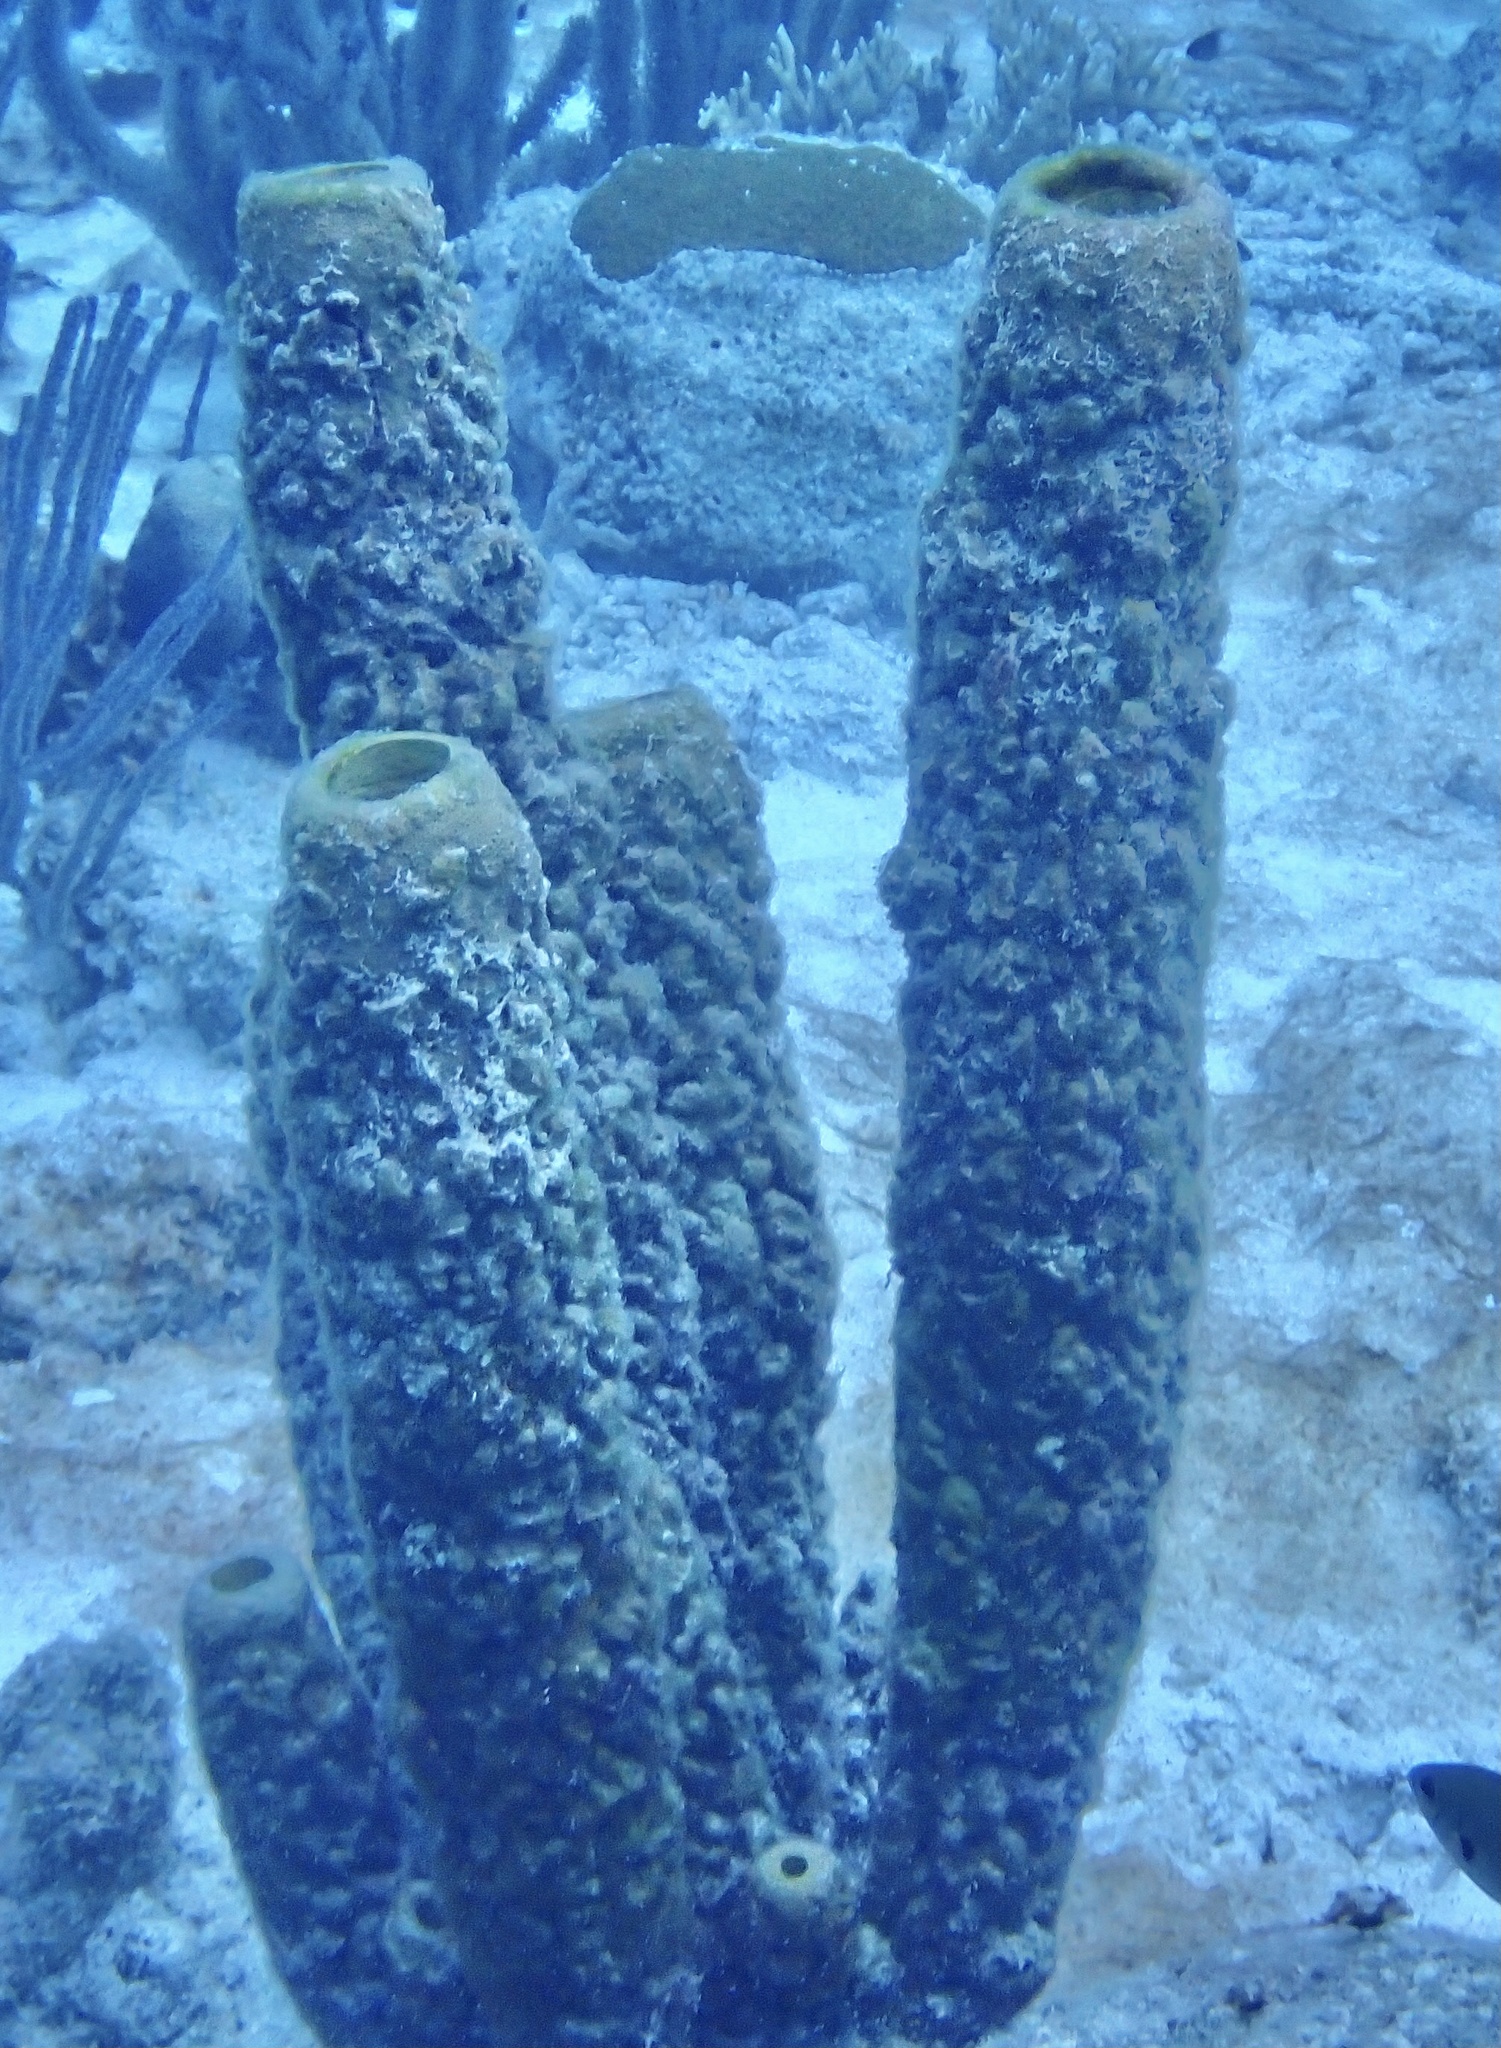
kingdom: Animalia
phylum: Porifera
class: Demospongiae
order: Verongiida
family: Aplysinidae
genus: Aplysina
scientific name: Aplysina archeri
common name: Stove-pipe sponge
